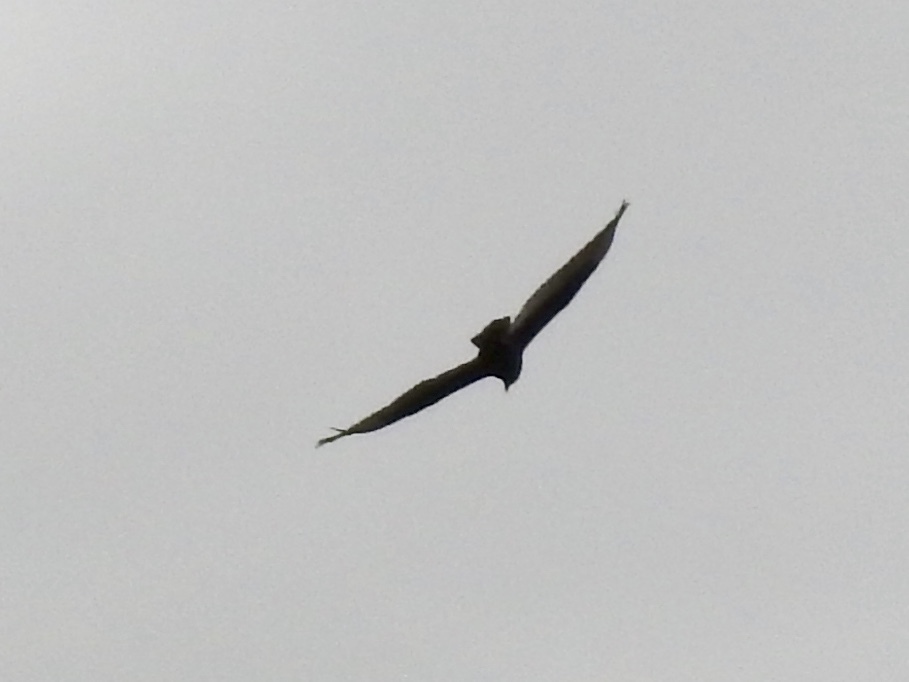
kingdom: Animalia
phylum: Chordata
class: Aves
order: Accipitriformes
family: Cathartidae
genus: Cathartes
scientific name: Cathartes aura
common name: Turkey vulture
